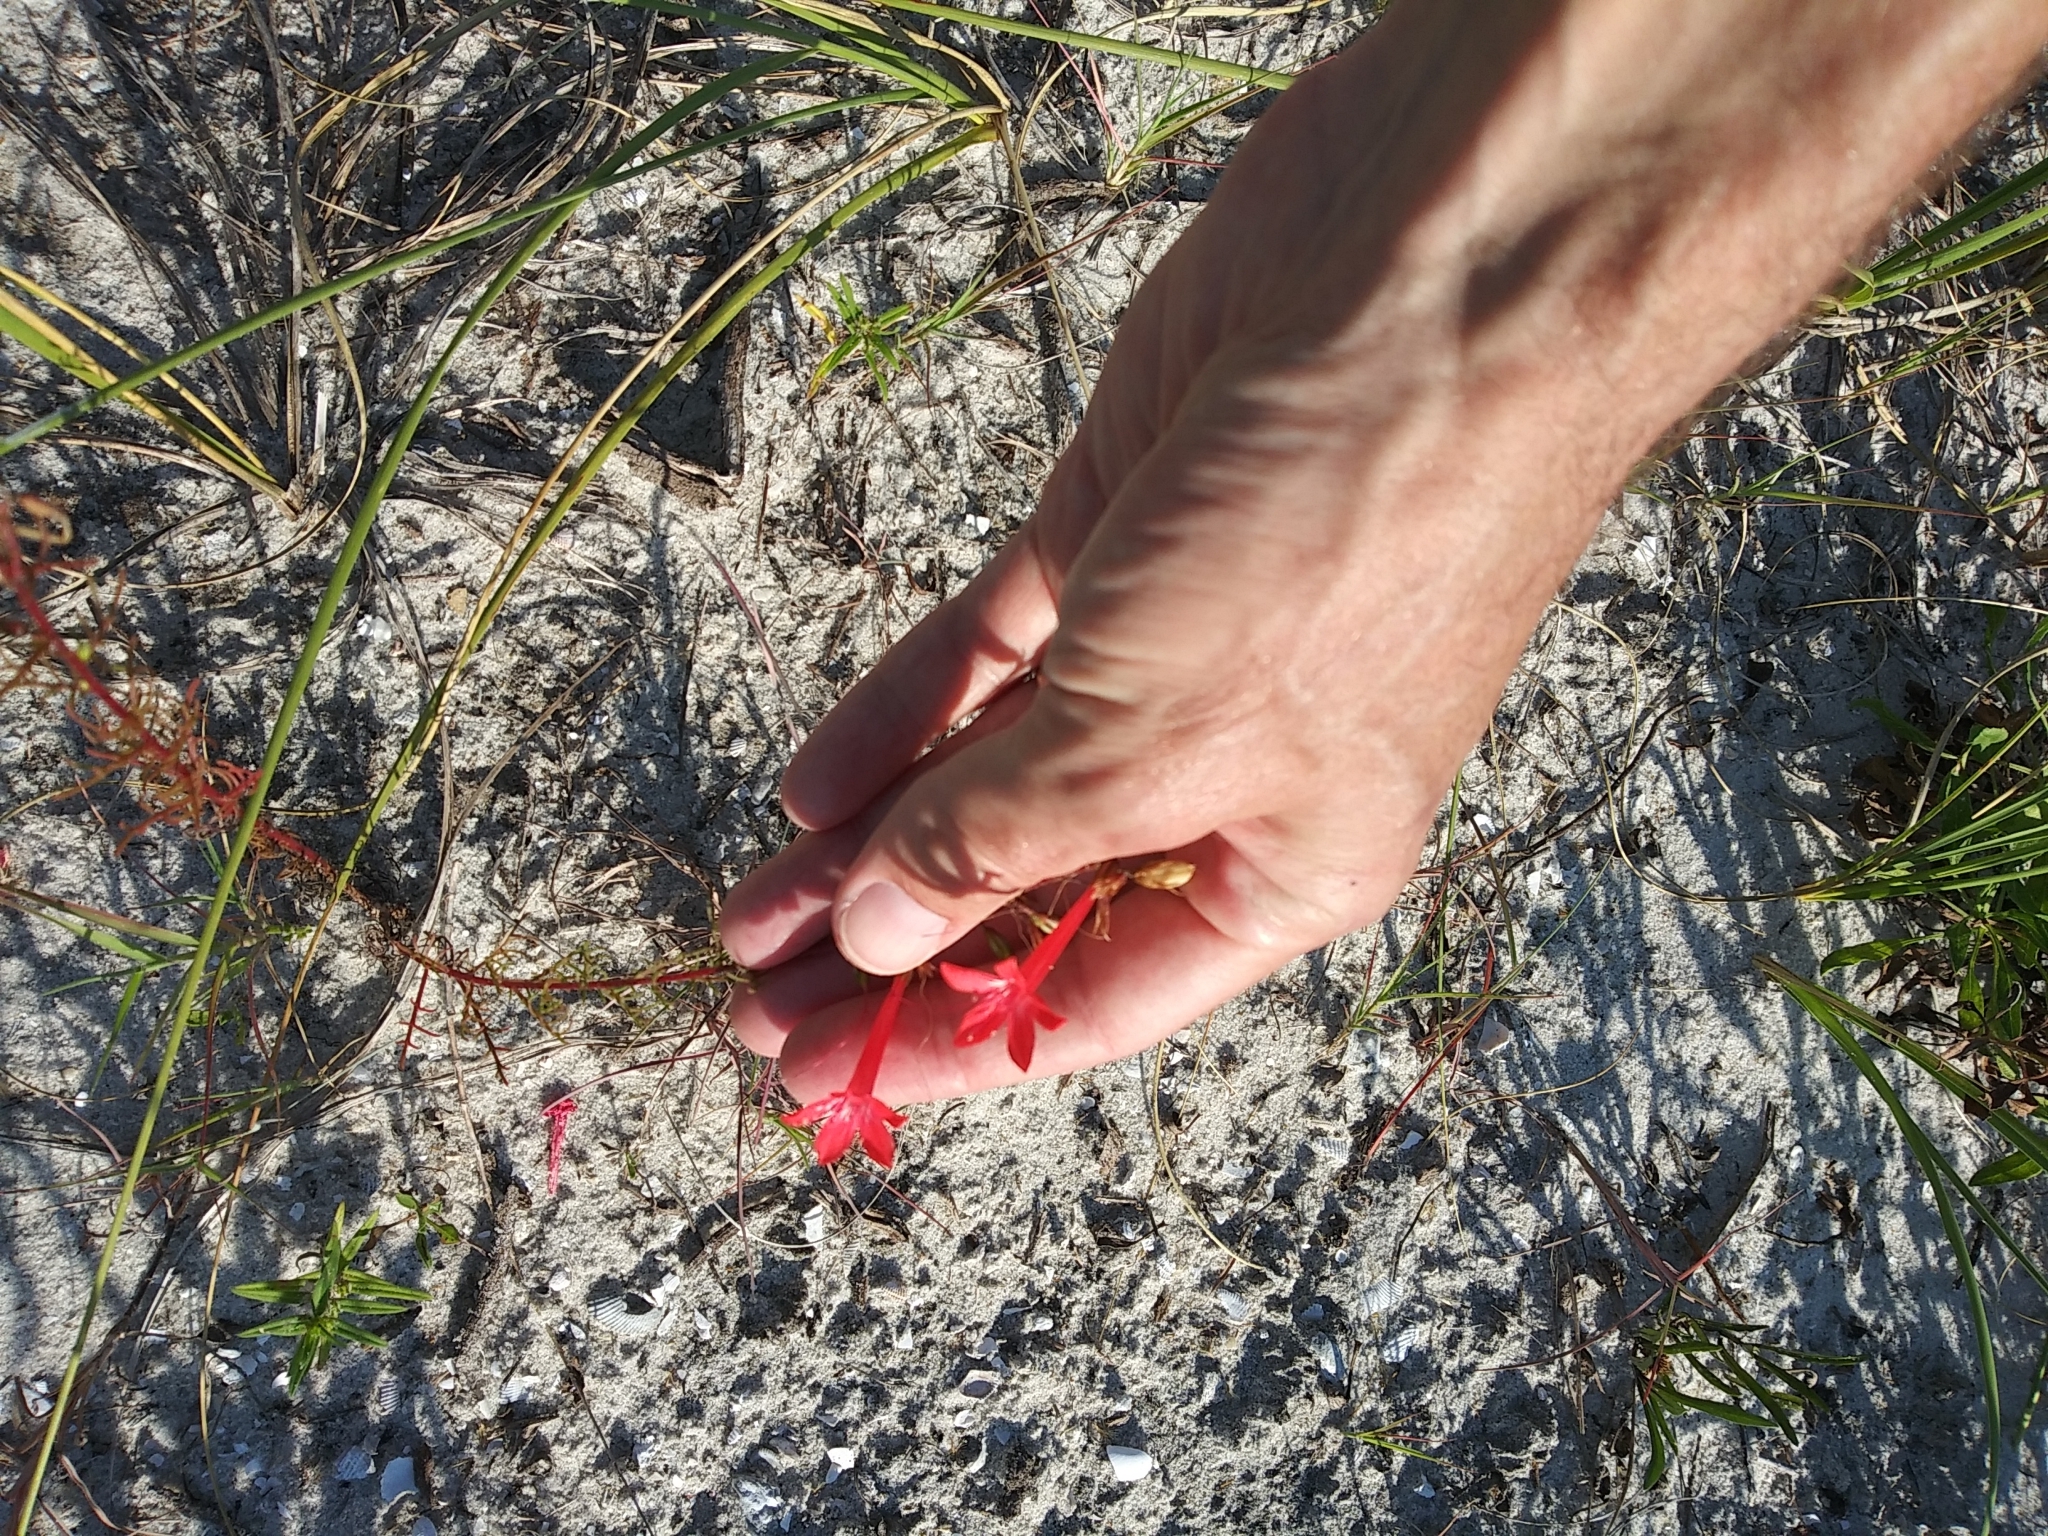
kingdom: Plantae
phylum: Tracheophyta
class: Magnoliopsida
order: Ericales
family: Polemoniaceae
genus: Ipomopsis
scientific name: Ipomopsis rubra
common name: Skyrocket
